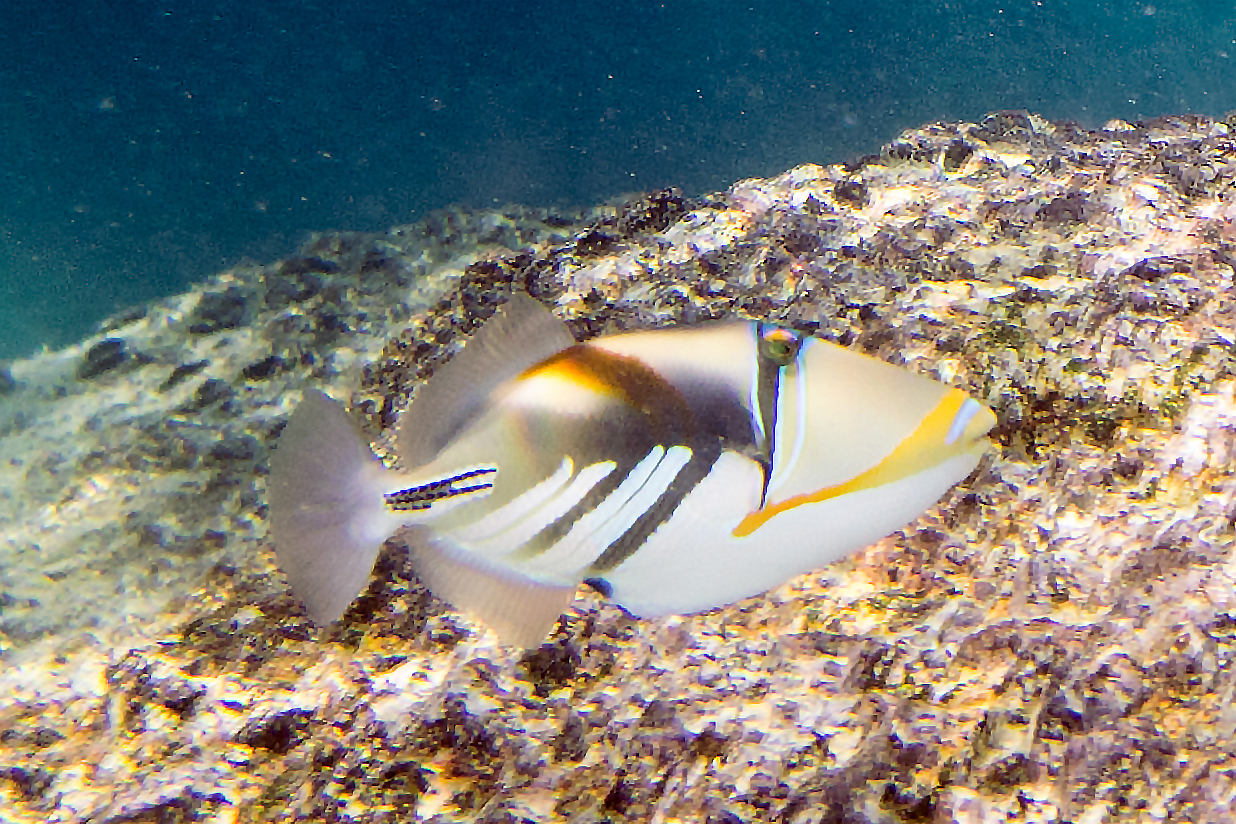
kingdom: Animalia
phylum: Chordata
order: Tetraodontiformes
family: Balistidae
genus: Rhinecanthus
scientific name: Rhinecanthus aculeatus
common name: White-banded triggerfish
